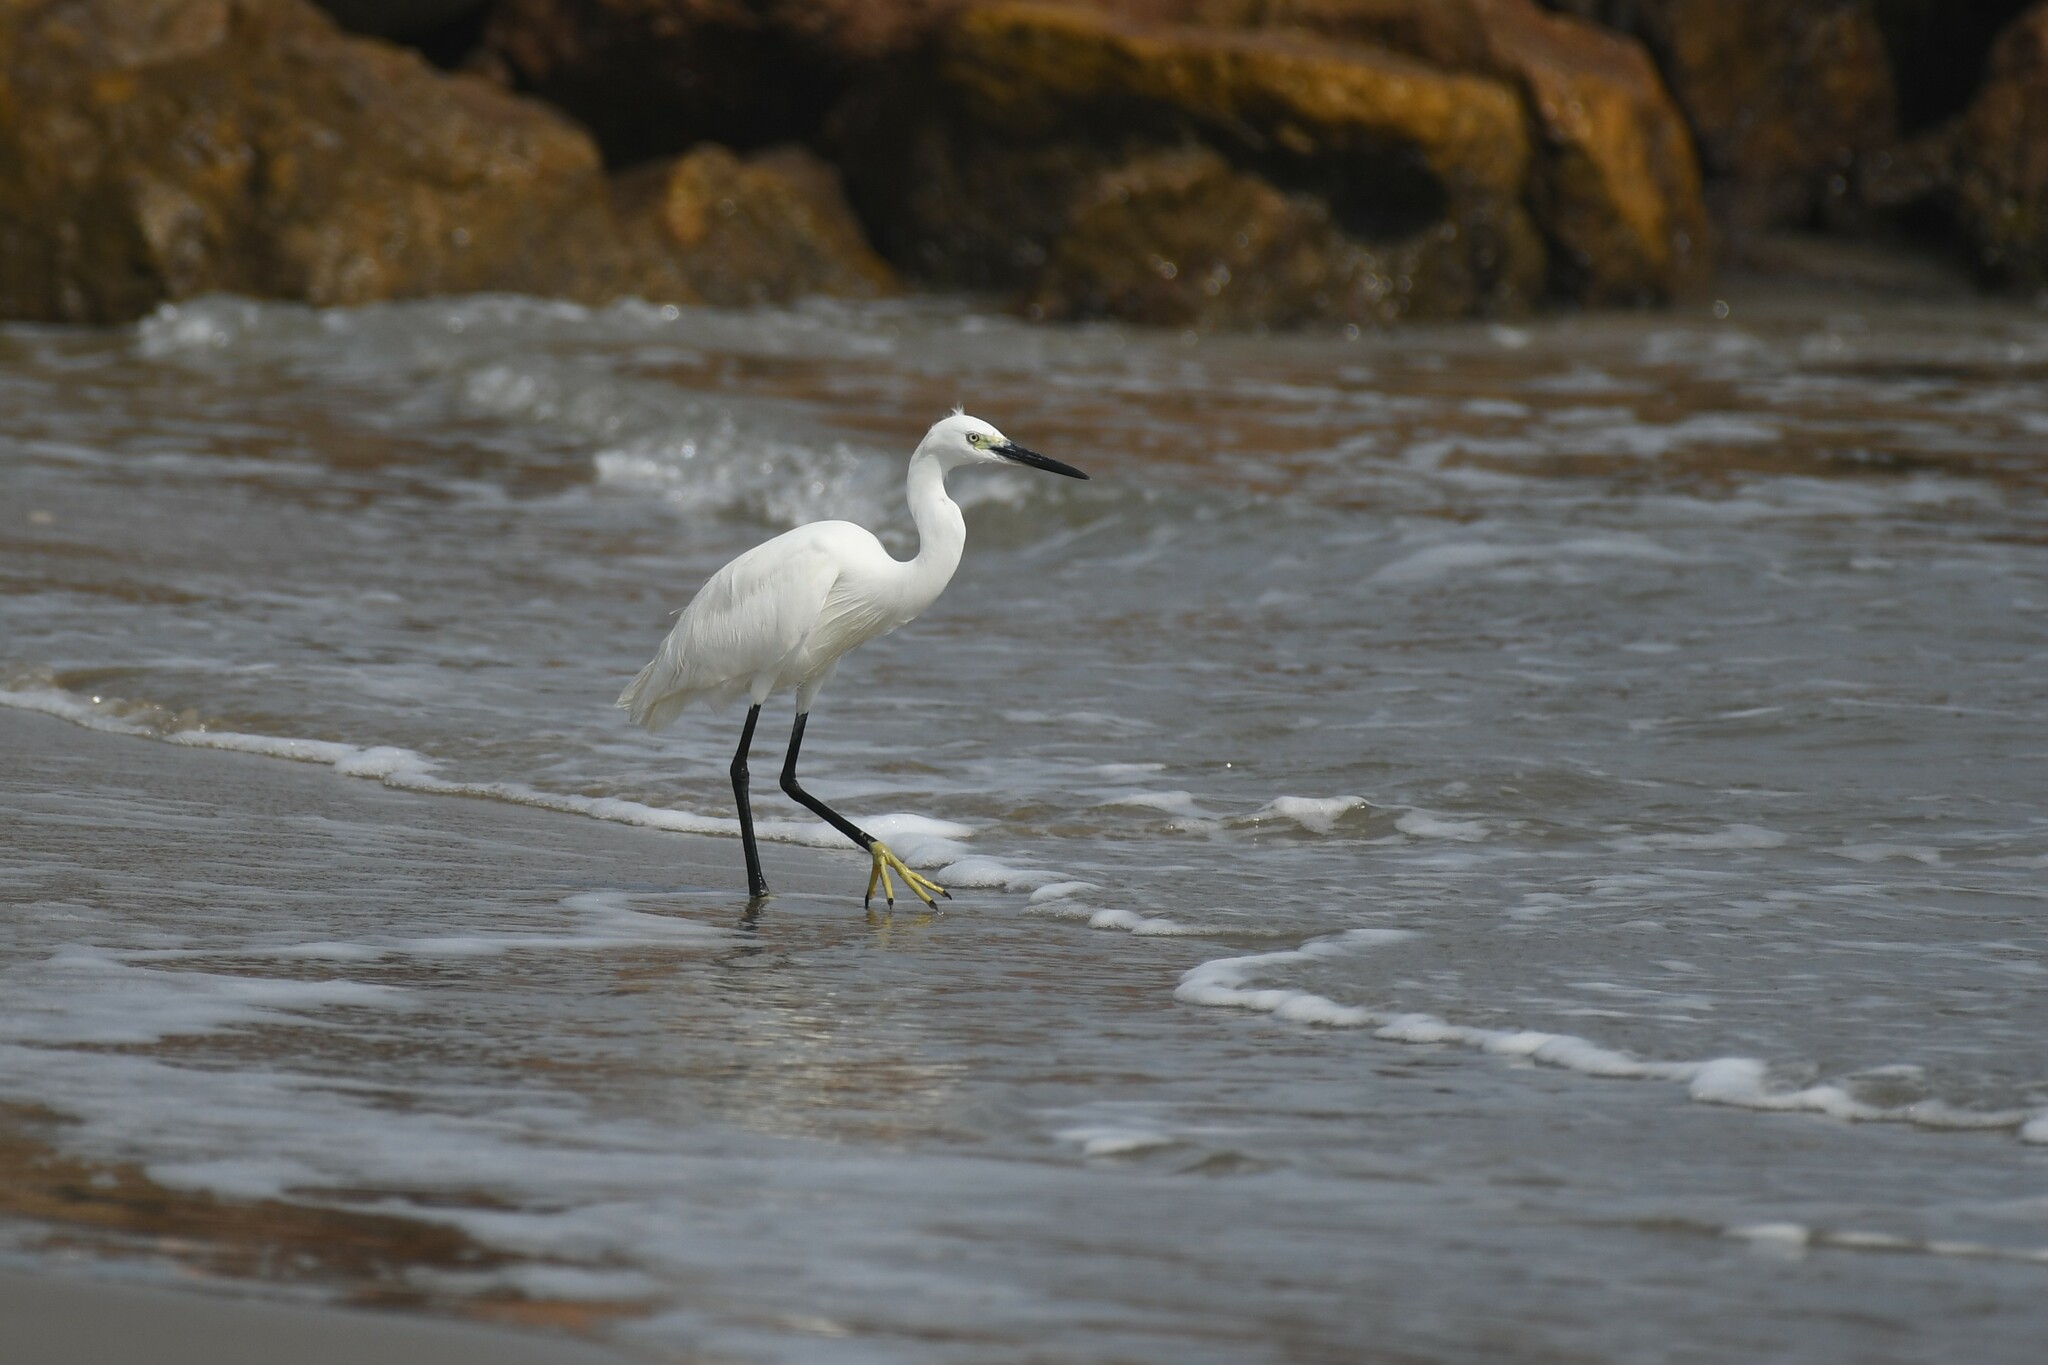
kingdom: Animalia
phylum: Chordata
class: Aves
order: Pelecaniformes
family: Ardeidae
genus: Egretta
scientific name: Egretta garzetta
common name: Little egret
